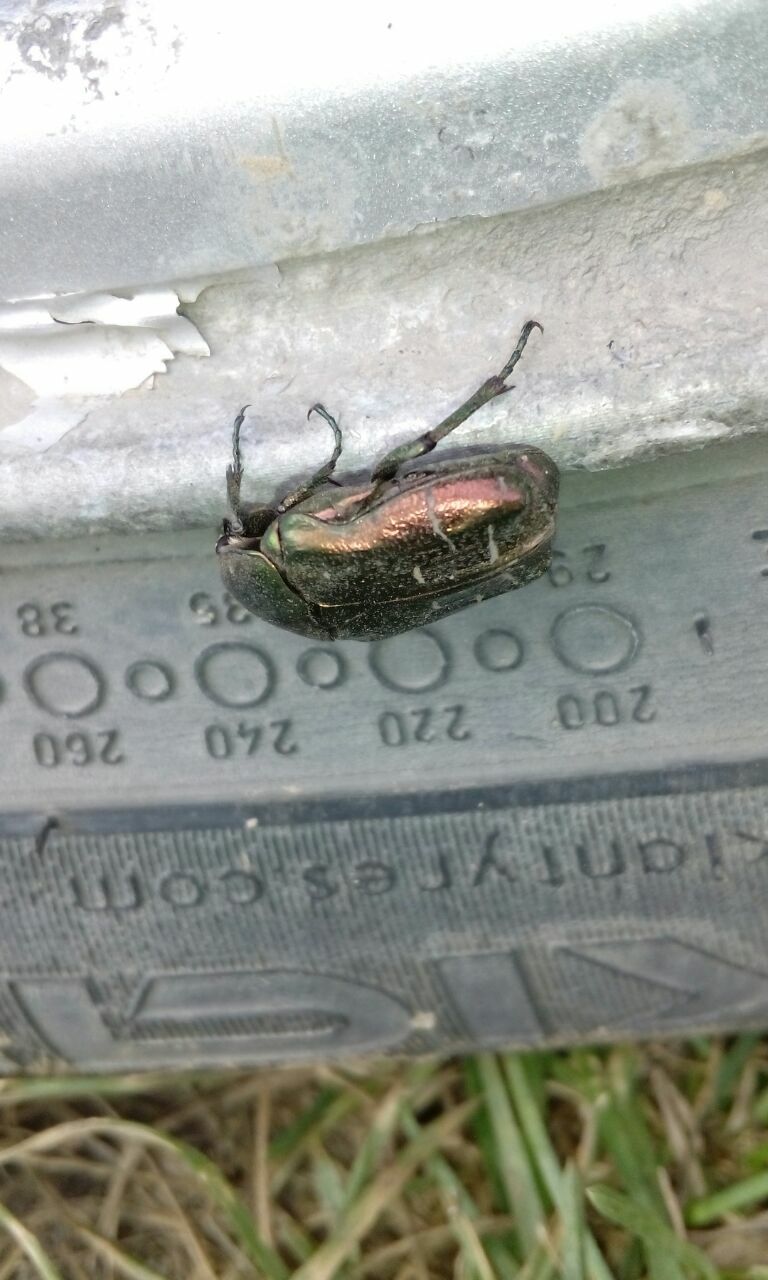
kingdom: Animalia
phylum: Arthropoda
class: Insecta
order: Coleoptera
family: Scarabaeidae
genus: Cetonia
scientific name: Cetonia aurata
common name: Rose chafer
